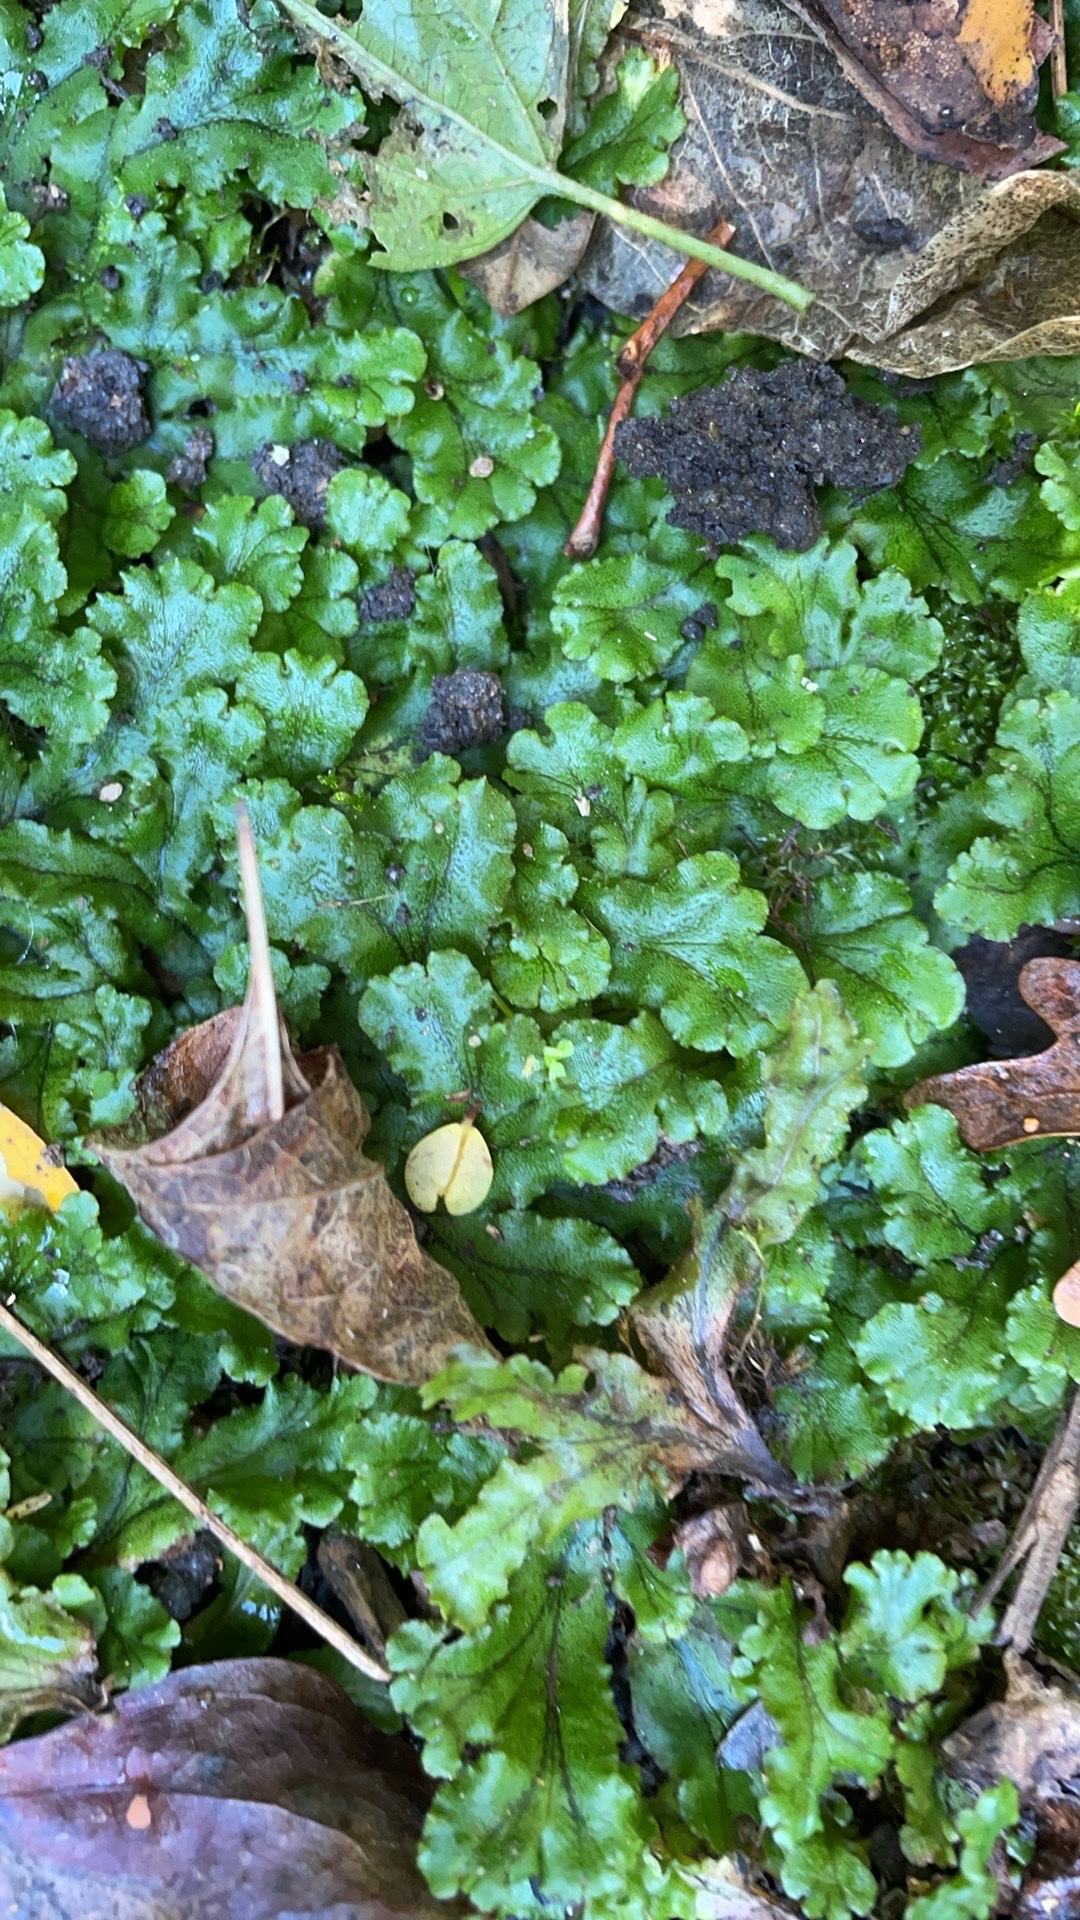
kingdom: Plantae
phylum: Marchantiophyta
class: Marchantiopsida
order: Marchantiales
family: Marchantiaceae
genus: Marchantia
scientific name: Marchantia polymorpha
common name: Common liverwort
